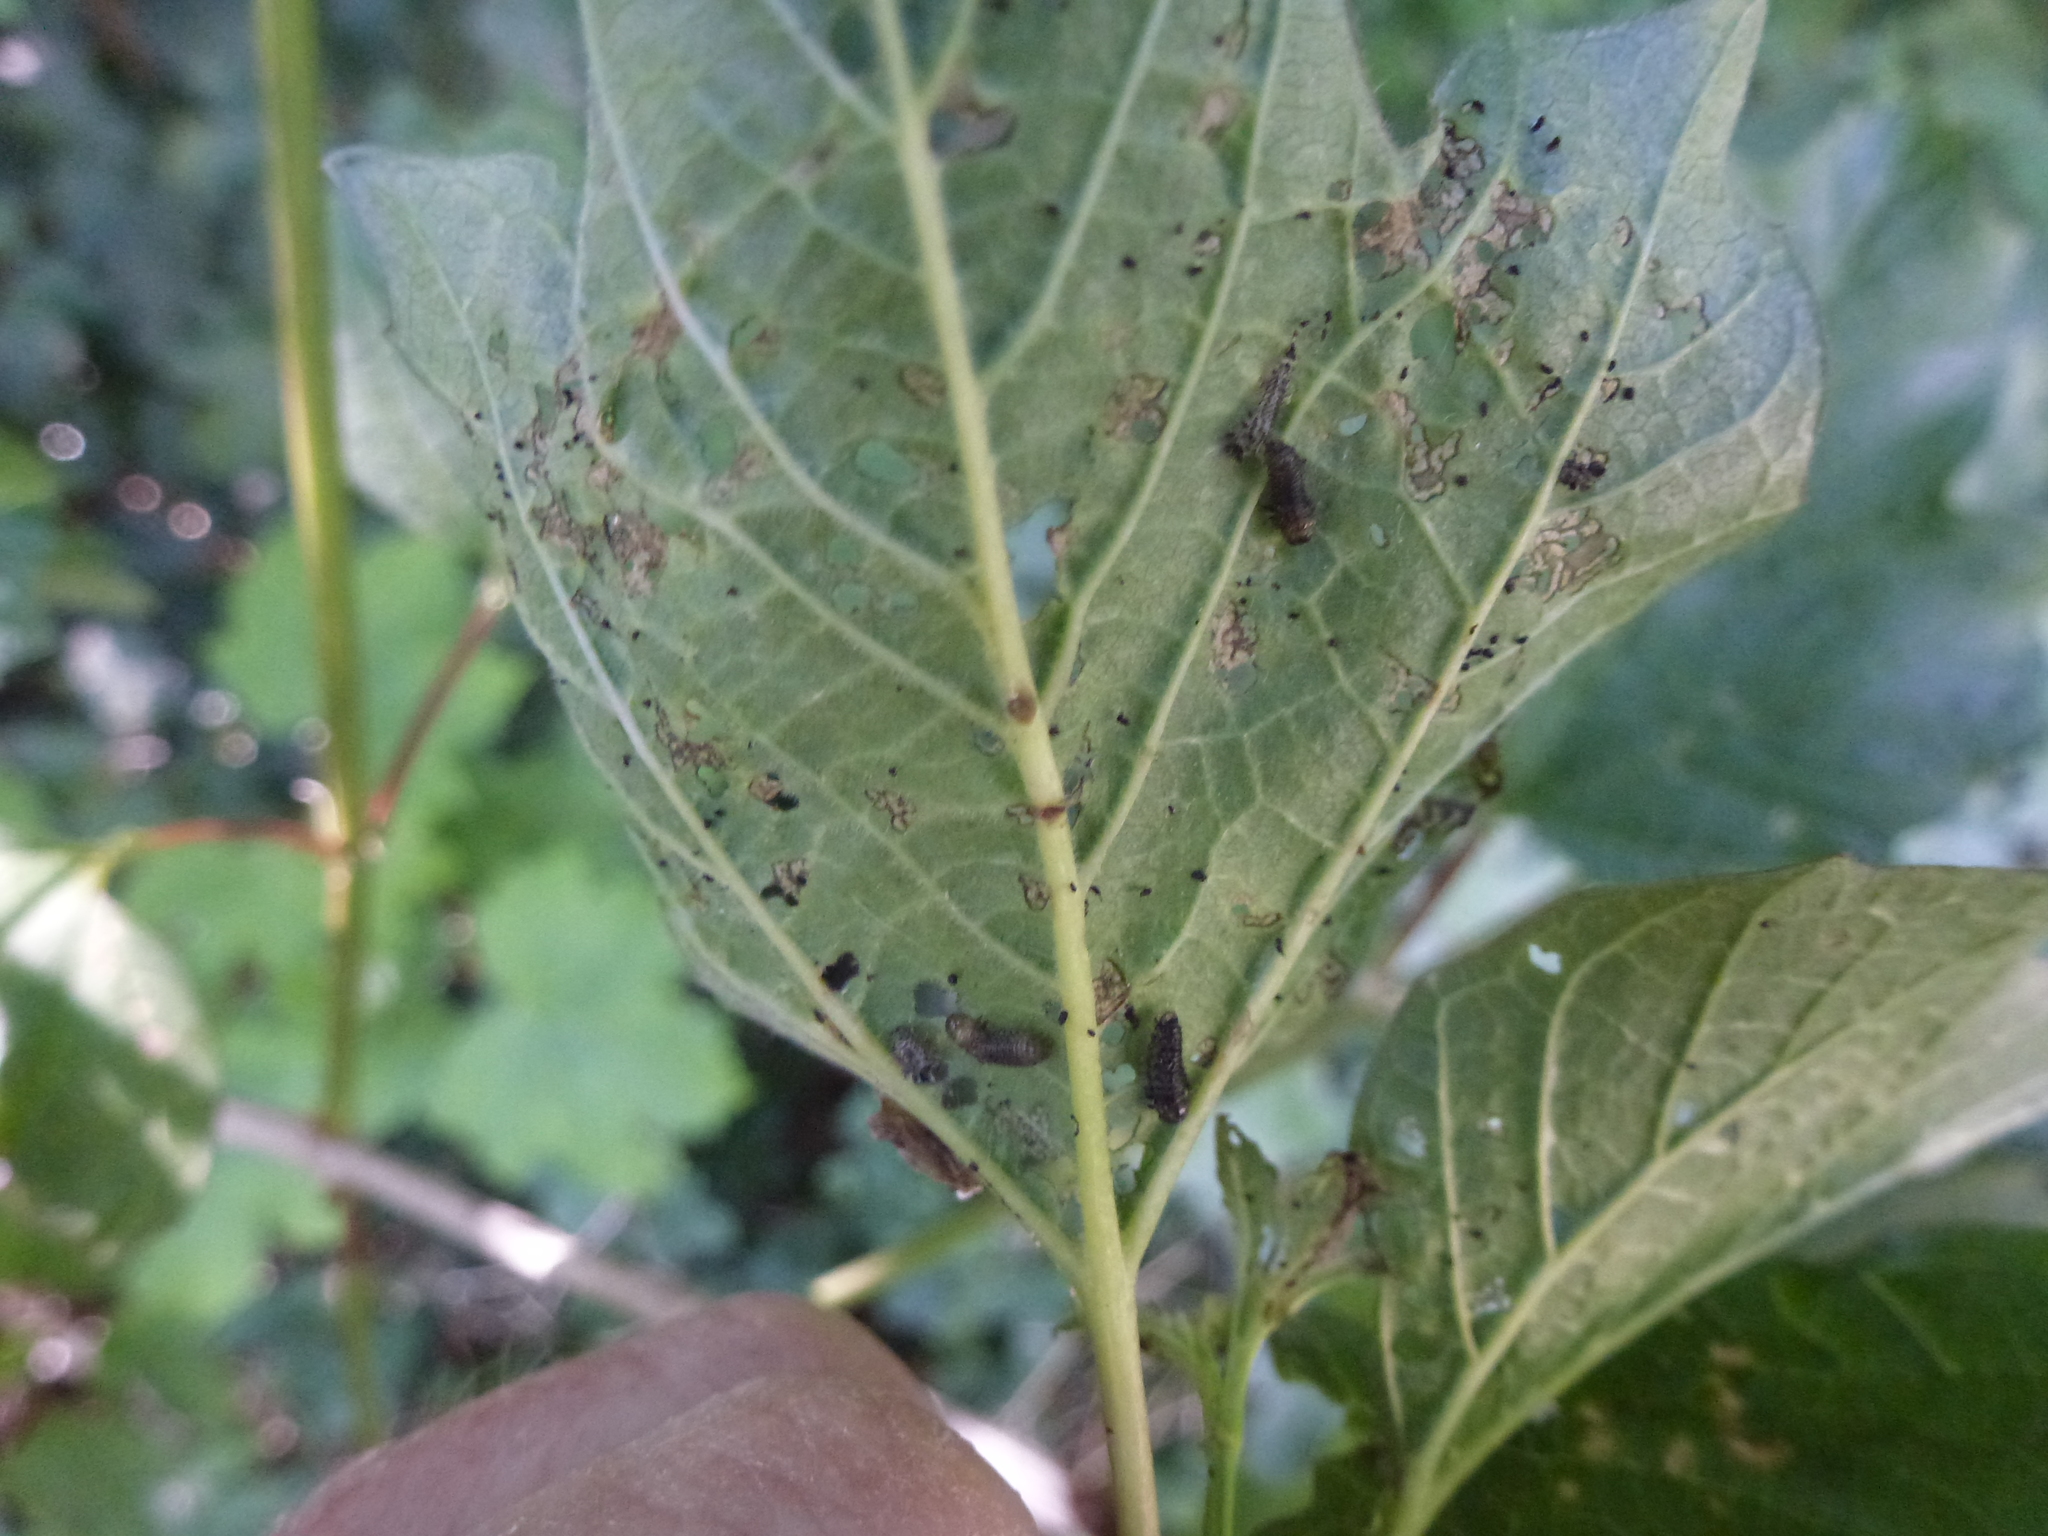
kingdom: Animalia
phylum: Arthropoda
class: Insecta
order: Coleoptera
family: Chrysomelidae
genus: Pyrrhalta
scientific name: Pyrrhalta viburni
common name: Guelder-rose leaf beetle
